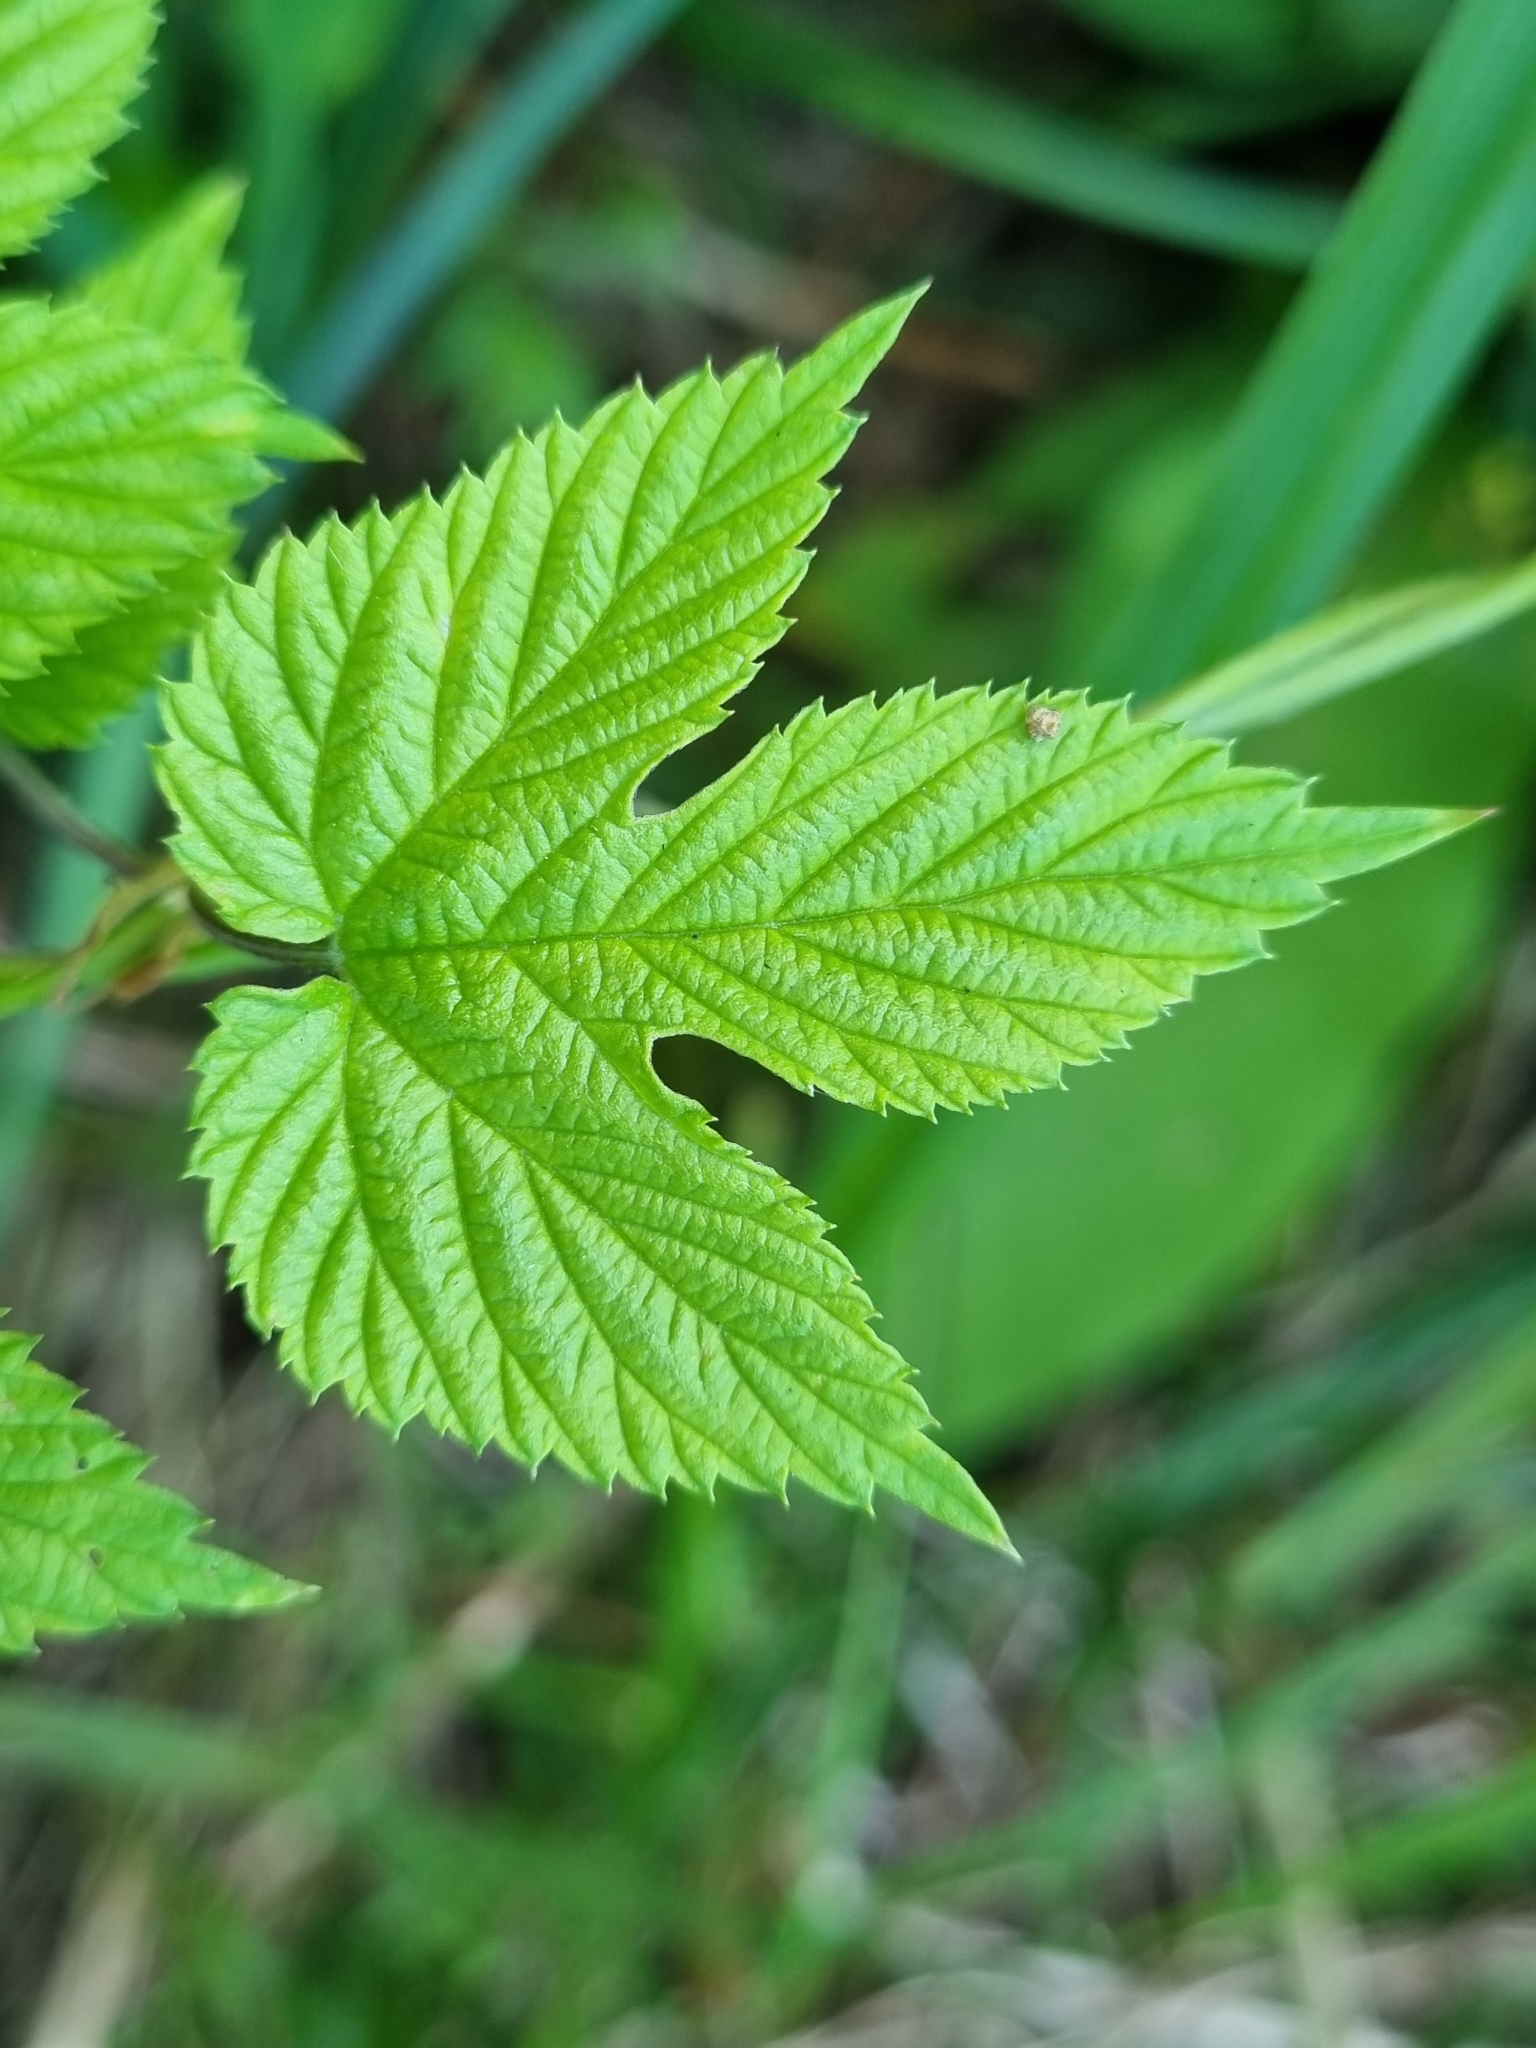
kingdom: Plantae
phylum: Tracheophyta
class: Magnoliopsida
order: Rosales
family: Cannabaceae
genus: Humulus
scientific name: Humulus lupulus
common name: Hop
